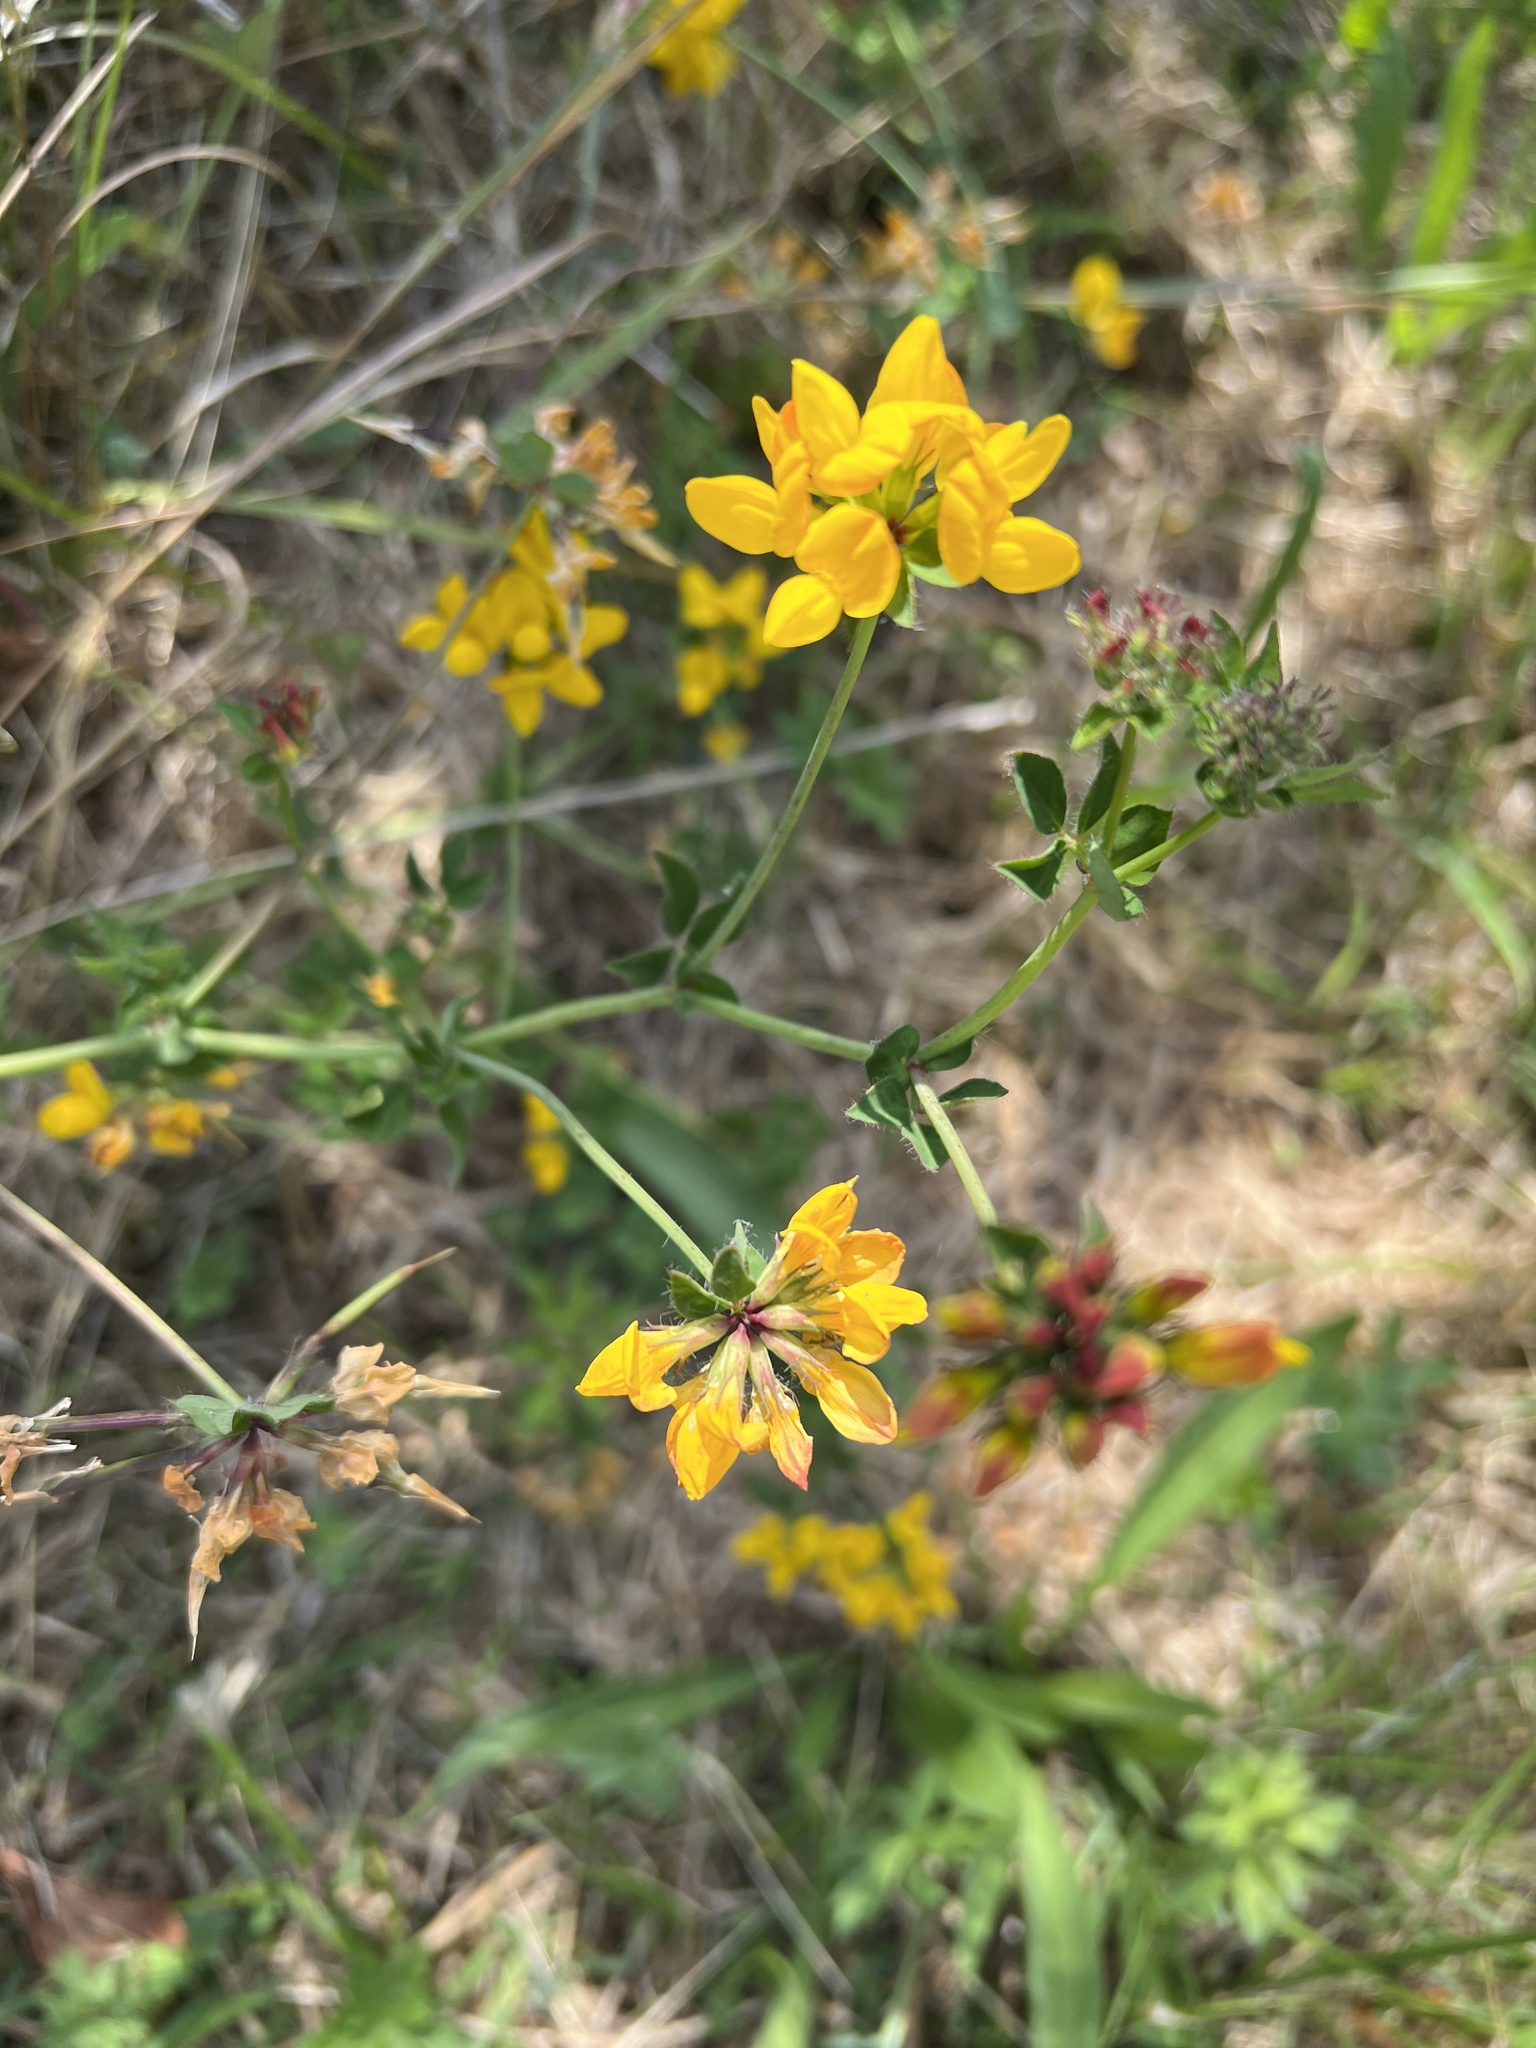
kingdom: Plantae
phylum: Tracheophyta
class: Magnoliopsida
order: Fabales
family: Fabaceae
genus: Lotus
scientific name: Lotus pedunculatus
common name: Greater birdsfoot-trefoil
